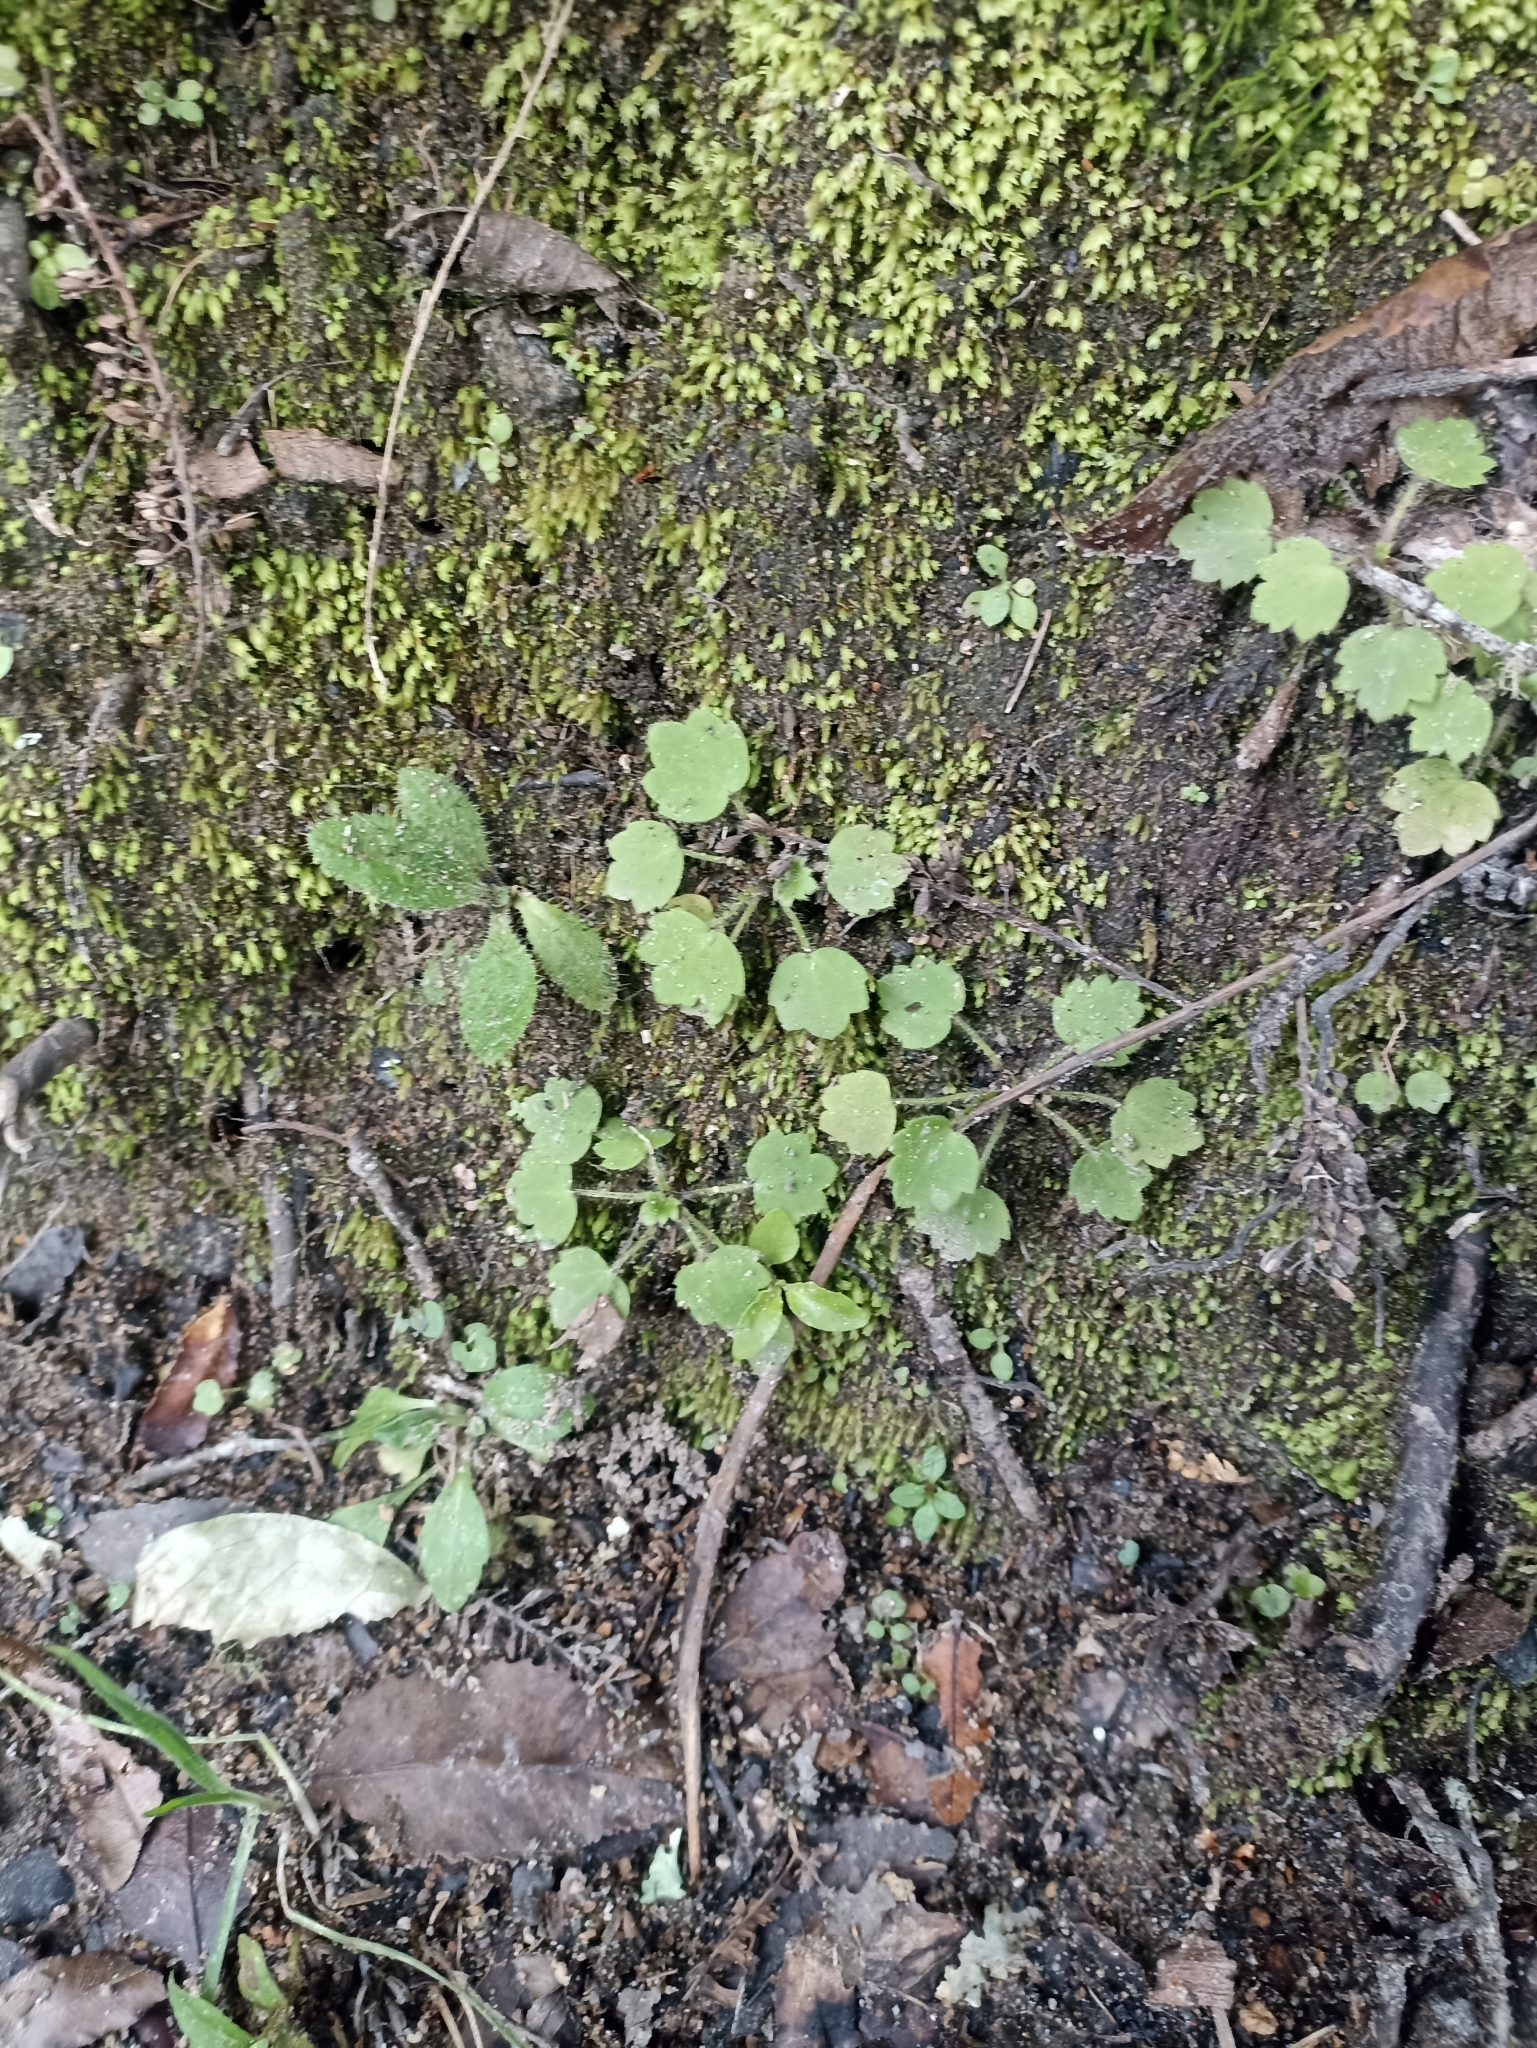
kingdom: Plantae
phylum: Tracheophyta
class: Magnoliopsida
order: Ranunculales
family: Ranunculaceae
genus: Ranunculus
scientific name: Ranunculus reflexus
